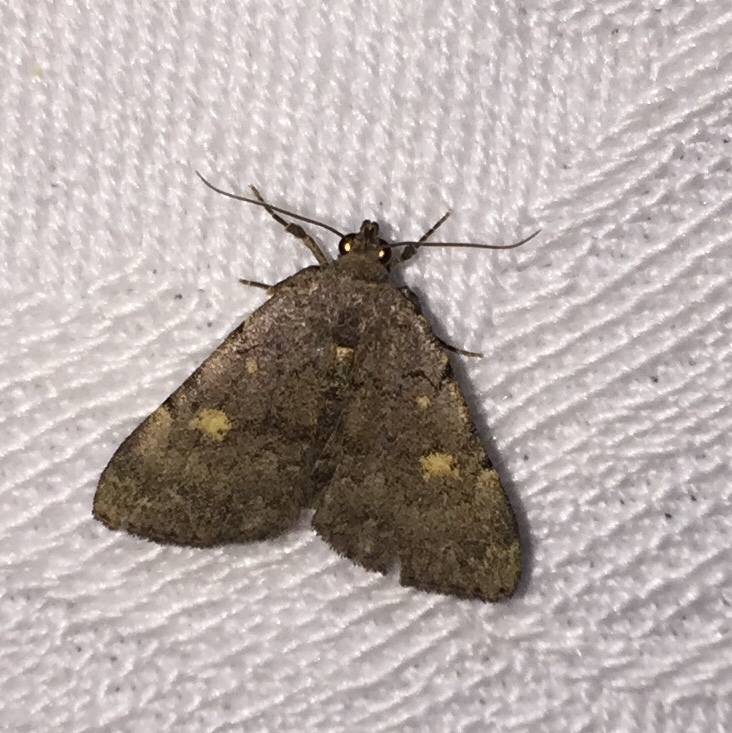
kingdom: Animalia
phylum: Arthropoda
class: Insecta
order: Lepidoptera
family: Erebidae
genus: Idia
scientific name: Idia aemula
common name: Common idia moth
